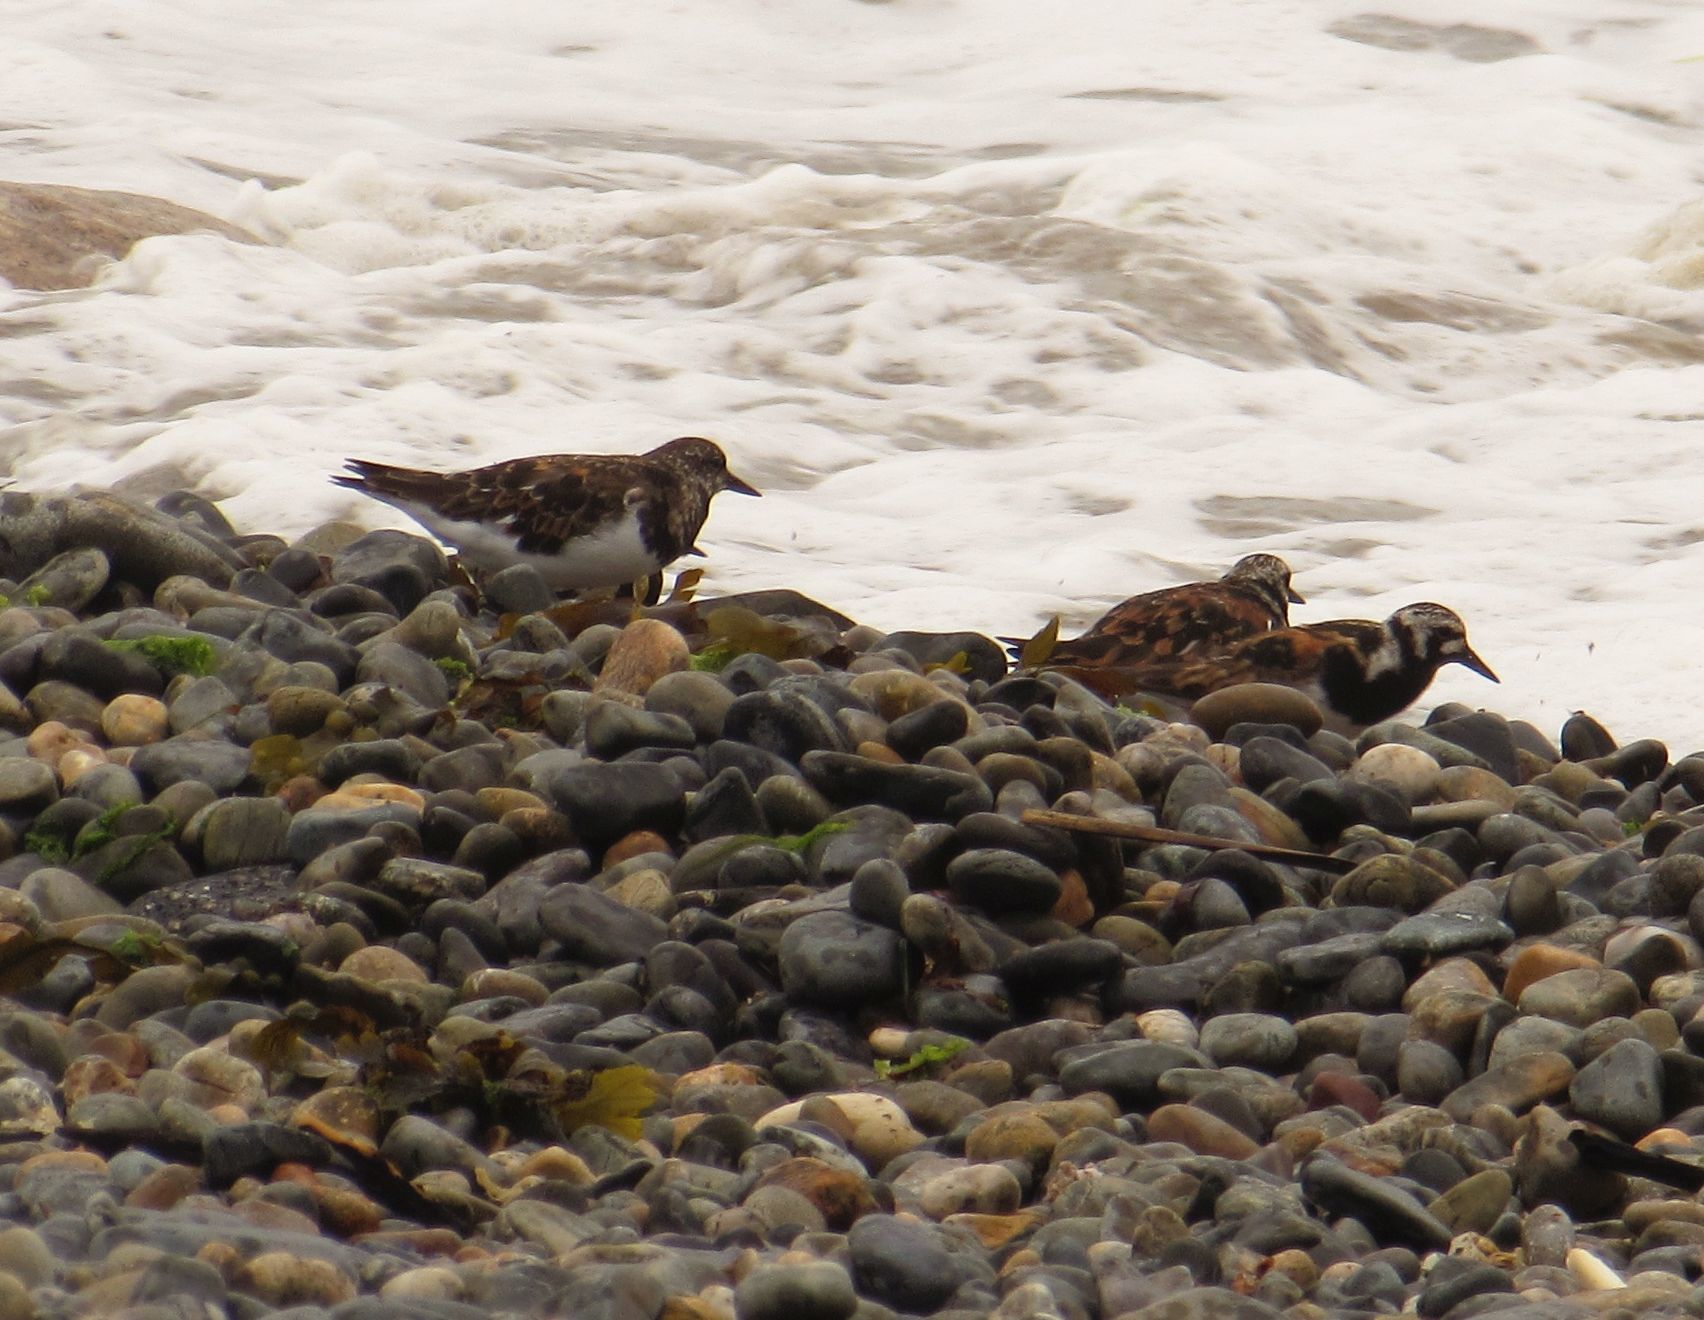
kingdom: Animalia
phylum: Chordata
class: Aves
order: Charadriiformes
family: Scolopacidae
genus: Arenaria
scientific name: Arenaria interpres
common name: Ruddy turnstone
